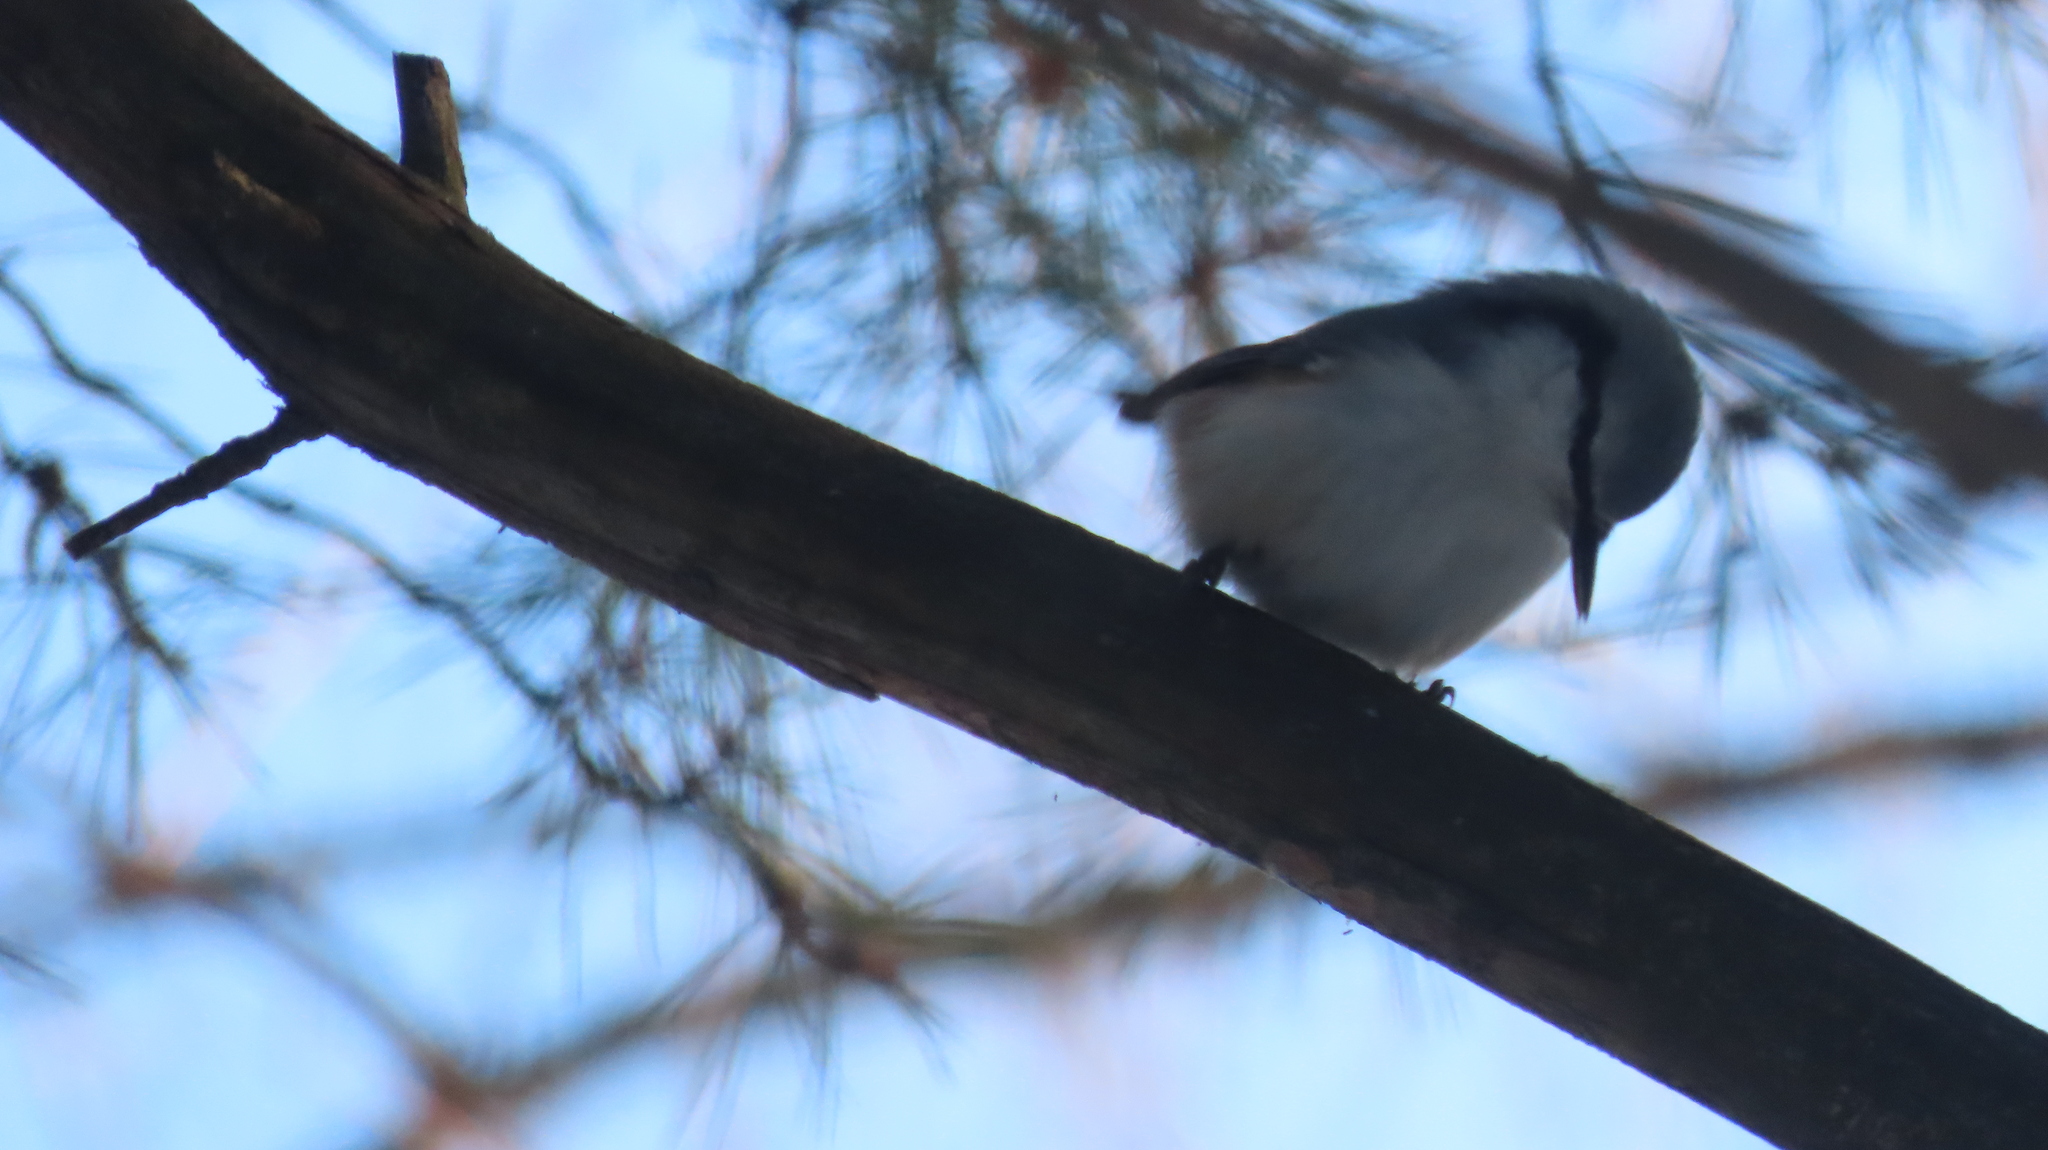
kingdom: Animalia
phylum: Chordata
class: Aves
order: Passeriformes
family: Sittidae
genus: Sitta
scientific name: Sitta europaea
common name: Eurasian nuthatch
